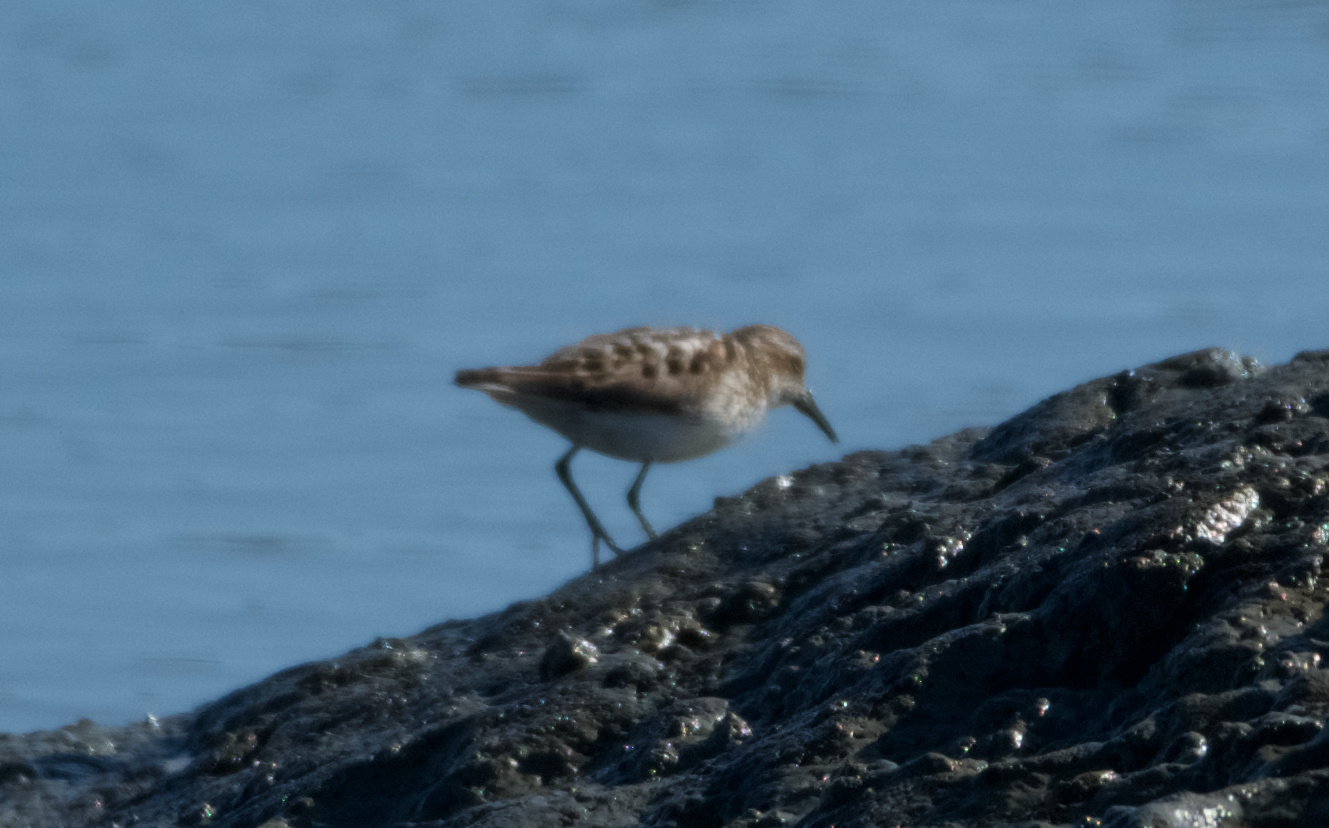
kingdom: Animalia
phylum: Chordata
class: Aves
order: Charadriiformes
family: Scolopacidae
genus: Calidris
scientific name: Calidris minutilla
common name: Least sandpiper
